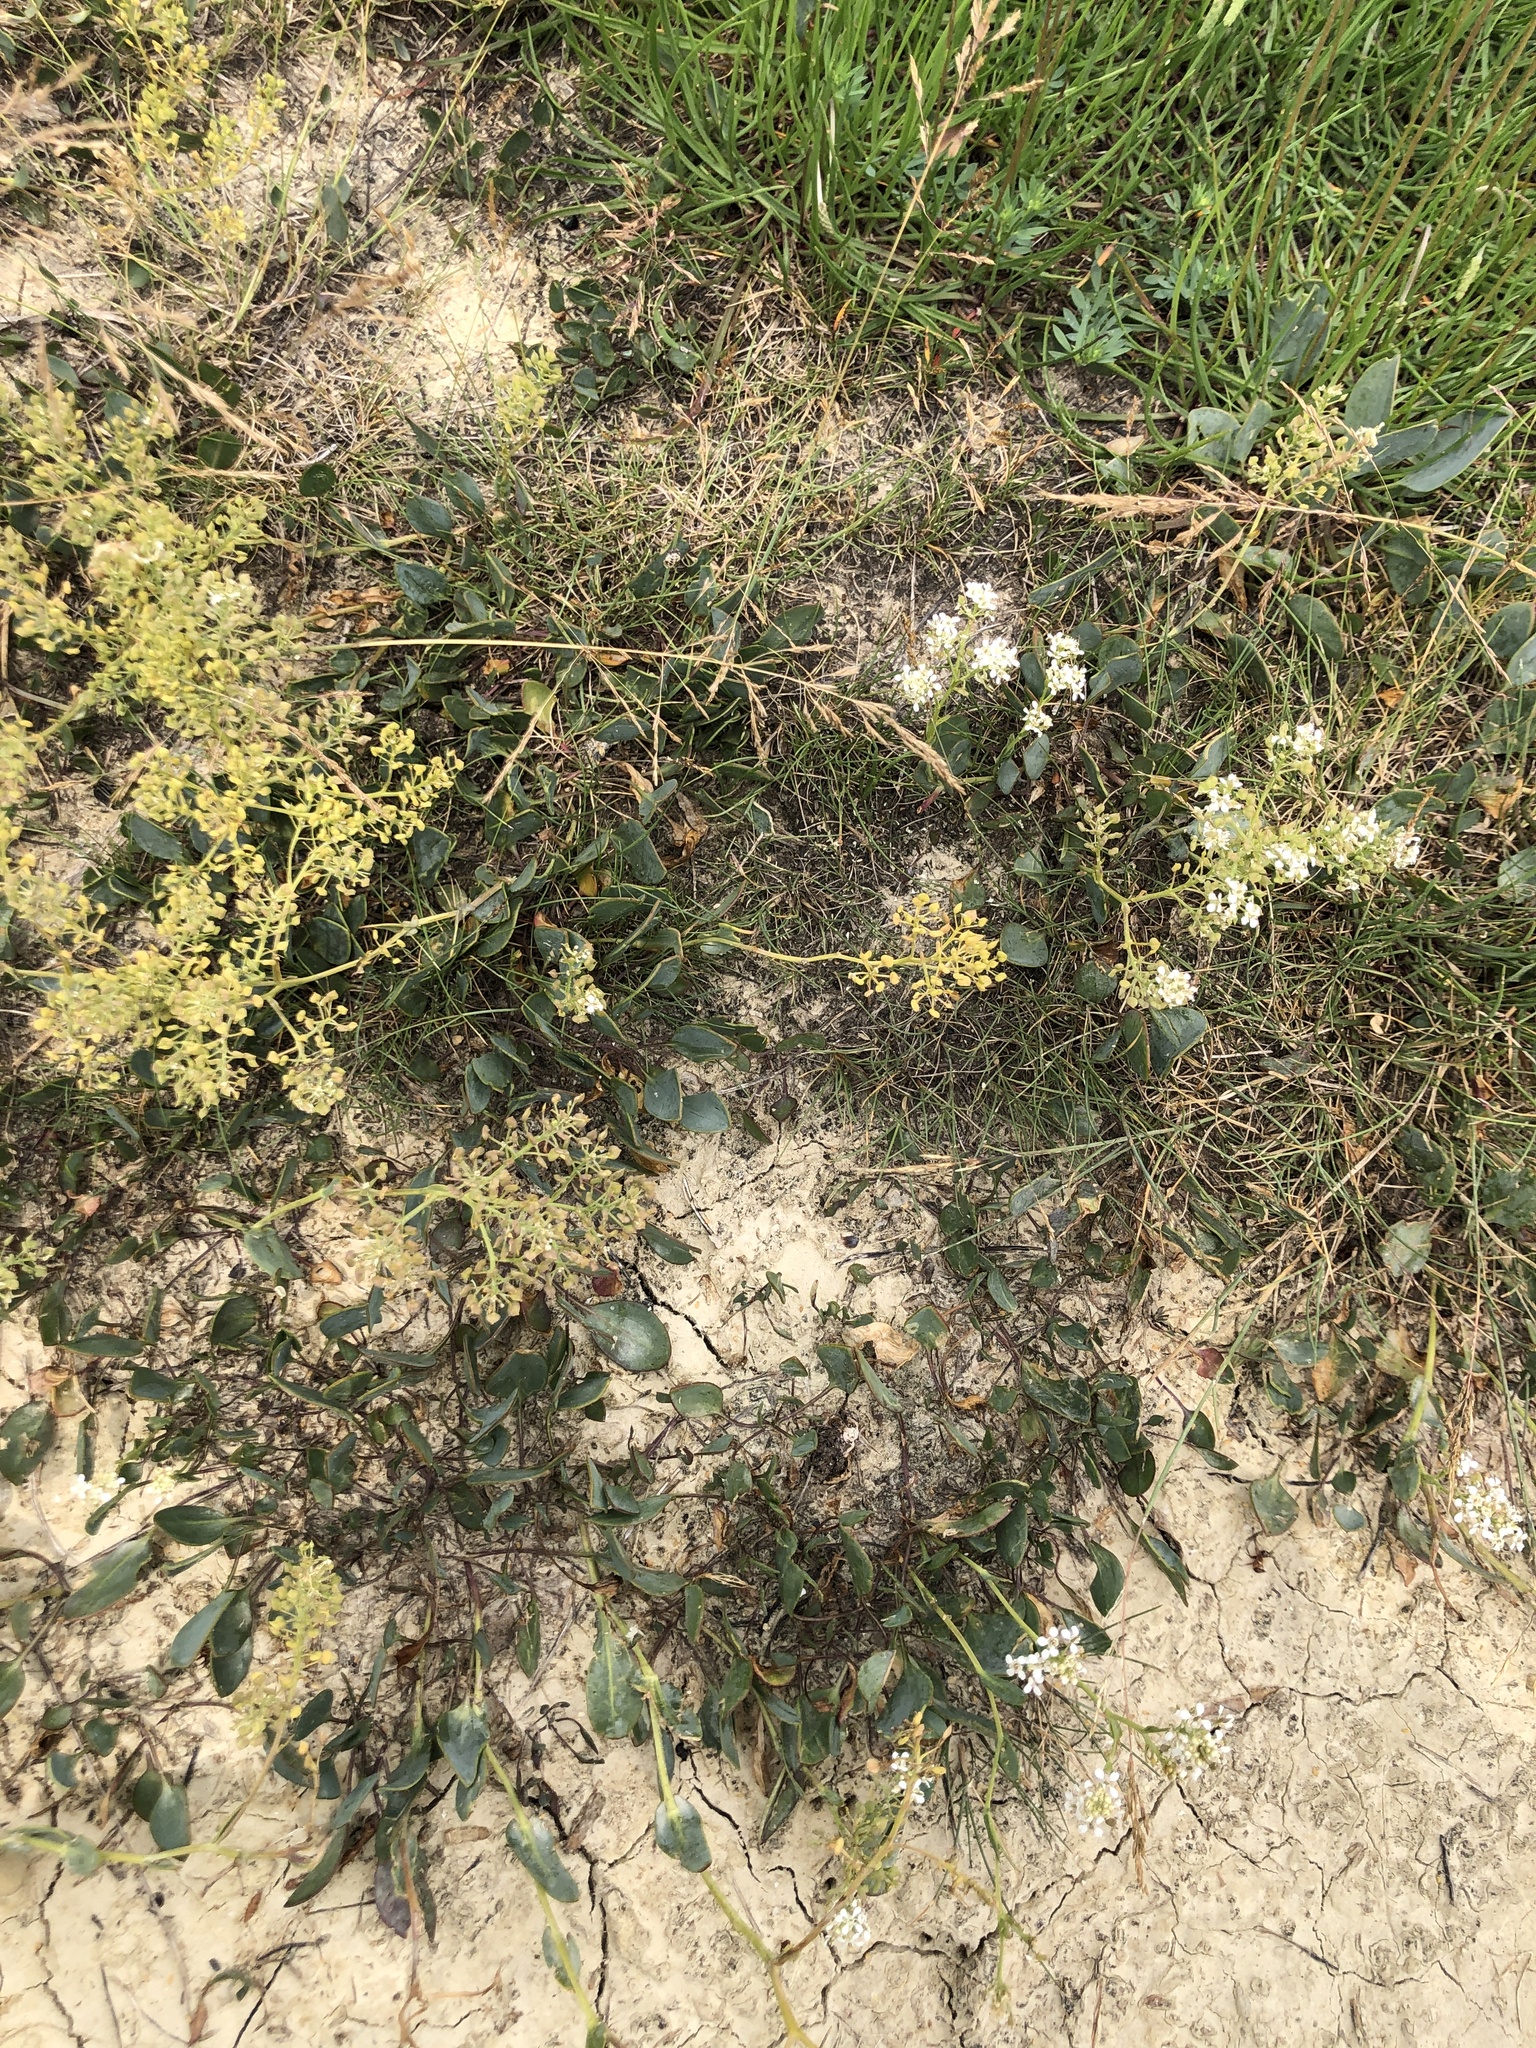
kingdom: Plantae
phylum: Tracheophyta
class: Magnoliopsida
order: Brassicales
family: Brassicaceae
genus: Lepidium
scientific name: Lepidium cartilagineum
